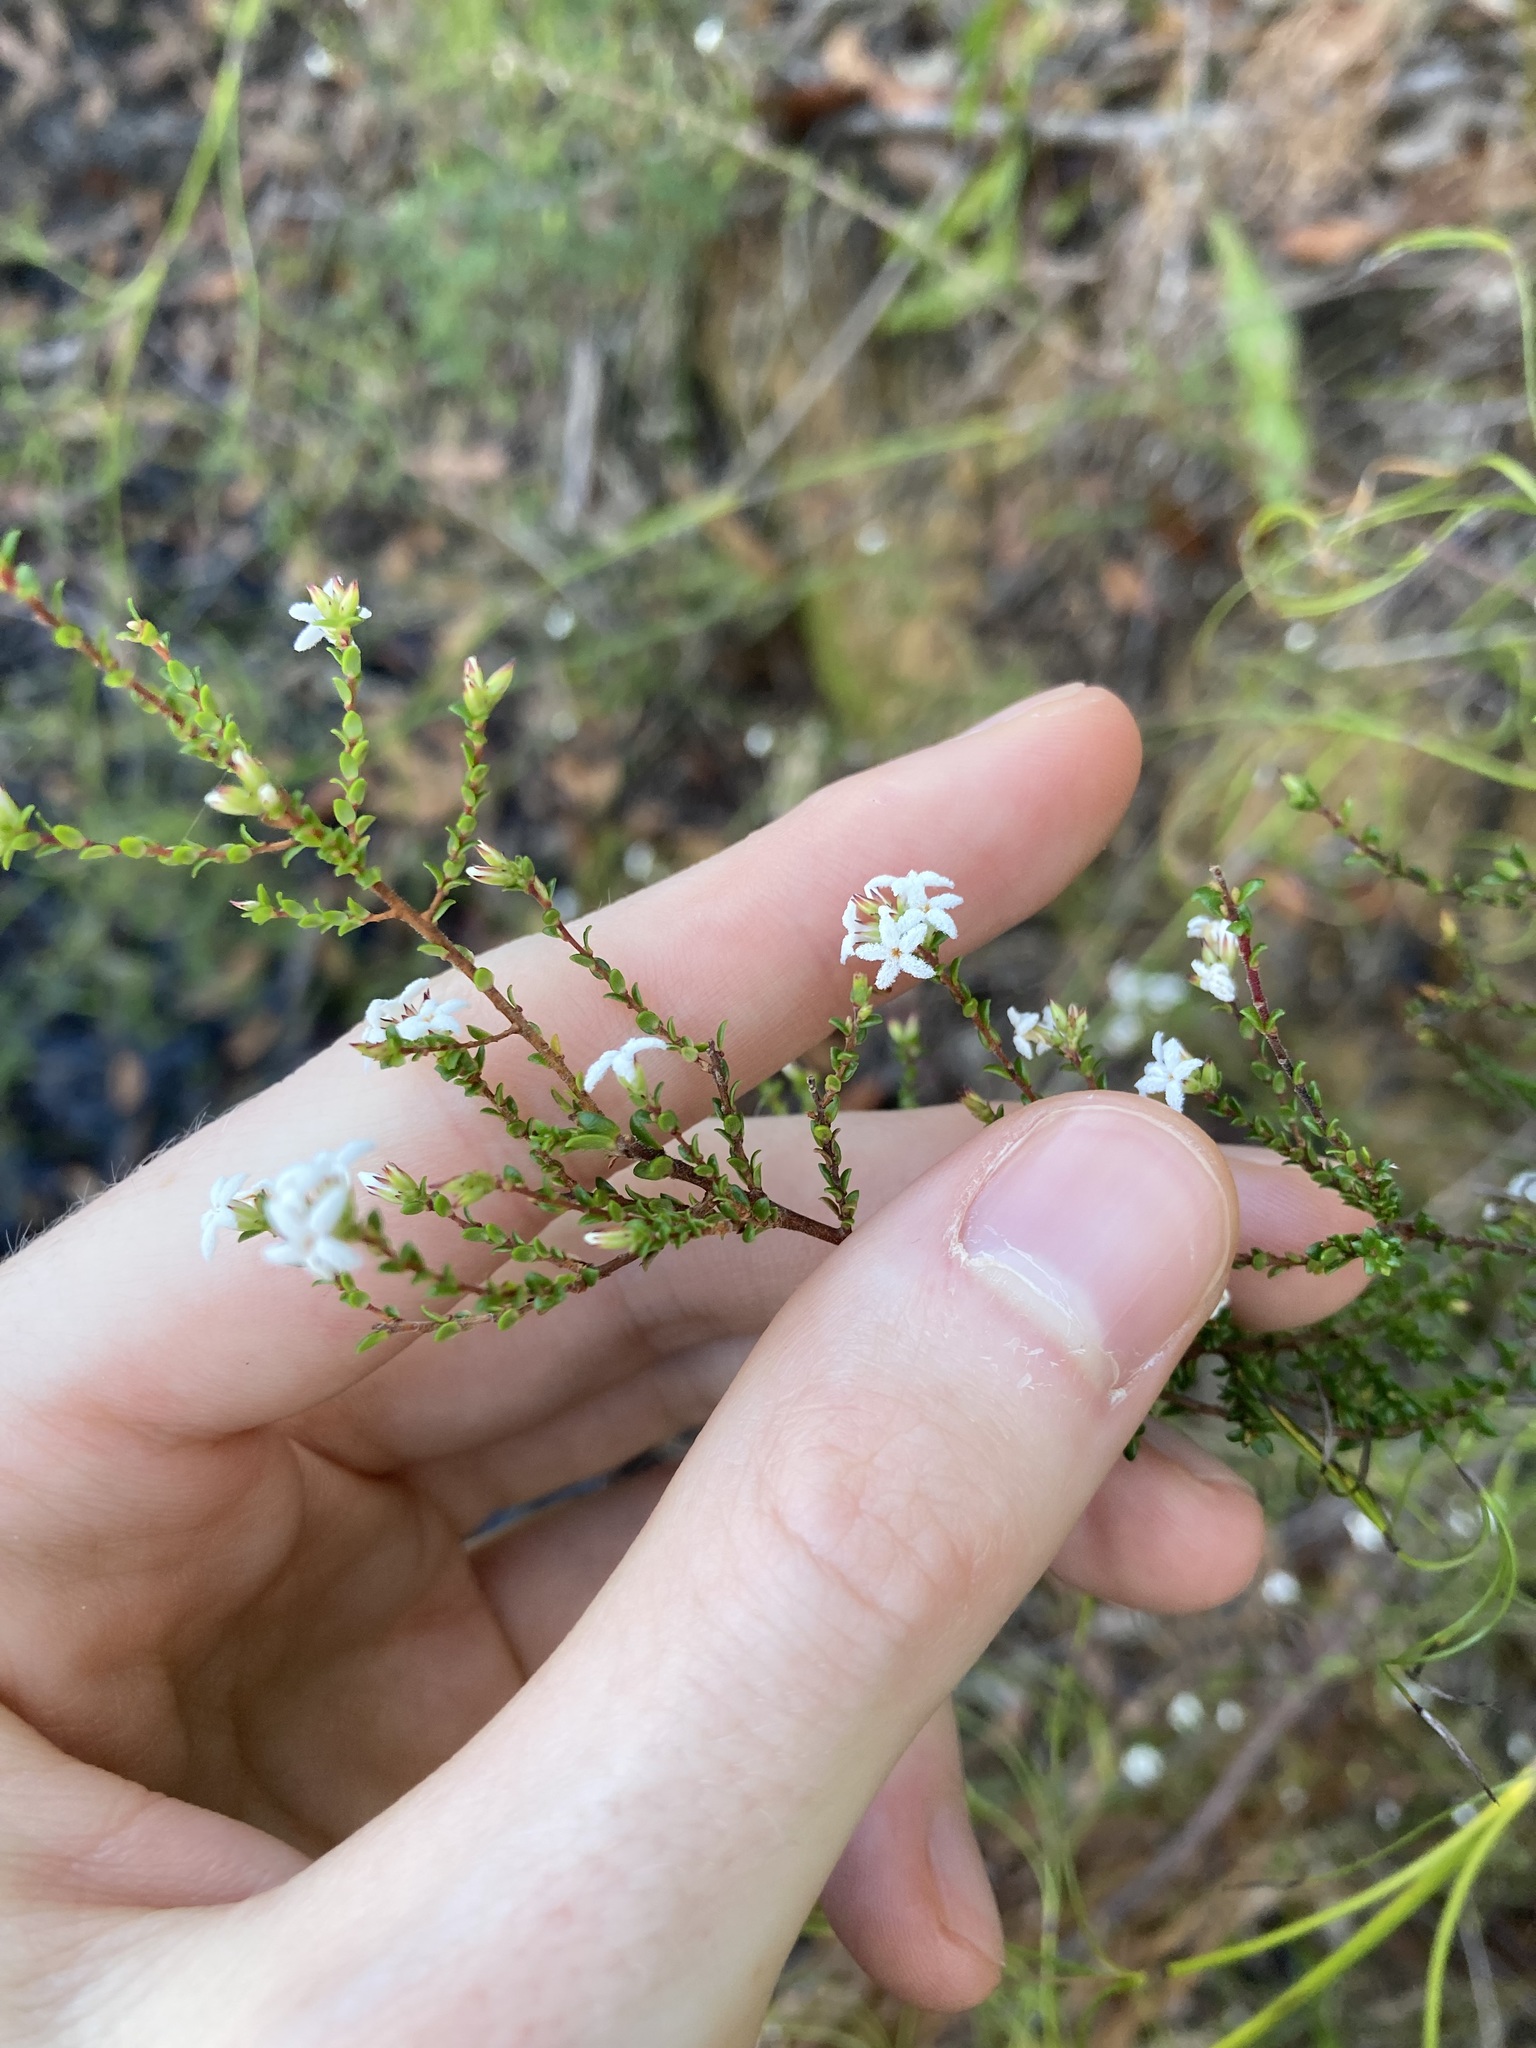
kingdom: Plantae
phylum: Tracheophyta
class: Magnoliopsida
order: Ericales
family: Ericaceae
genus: Leucopogon
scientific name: Leucopogon microphyllus
